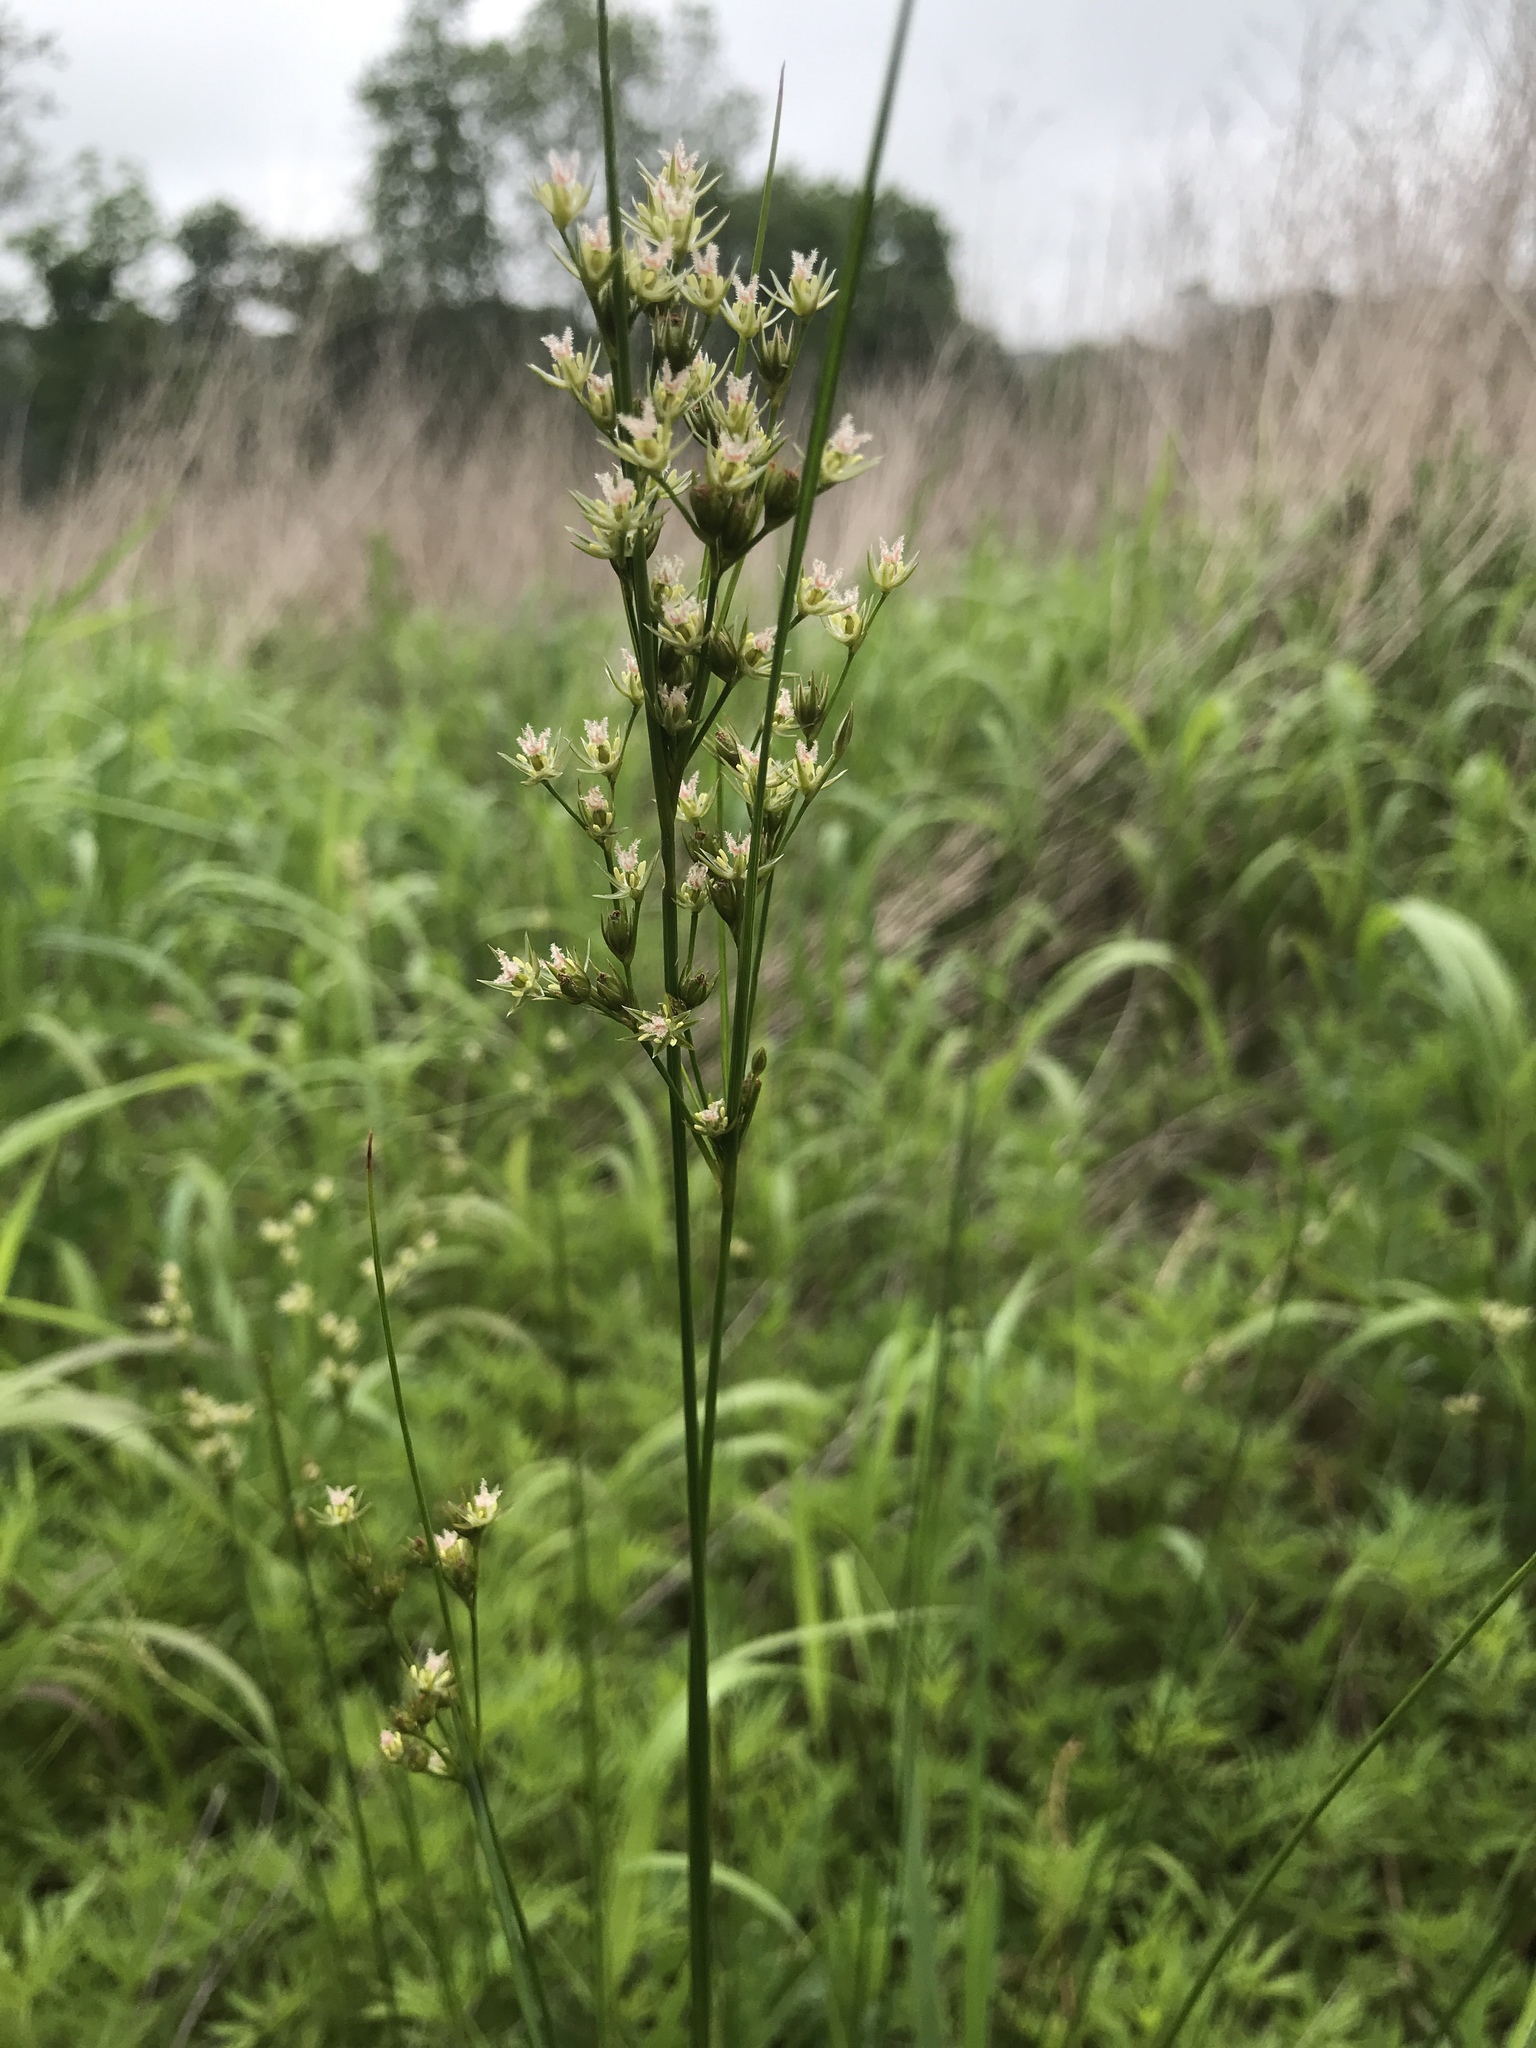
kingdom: Plantae
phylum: Tracheophyta
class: Liliopsida
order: Poales
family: Juncaceae
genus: Juncus
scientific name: Juncus dudleyi
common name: Dudley's rush
